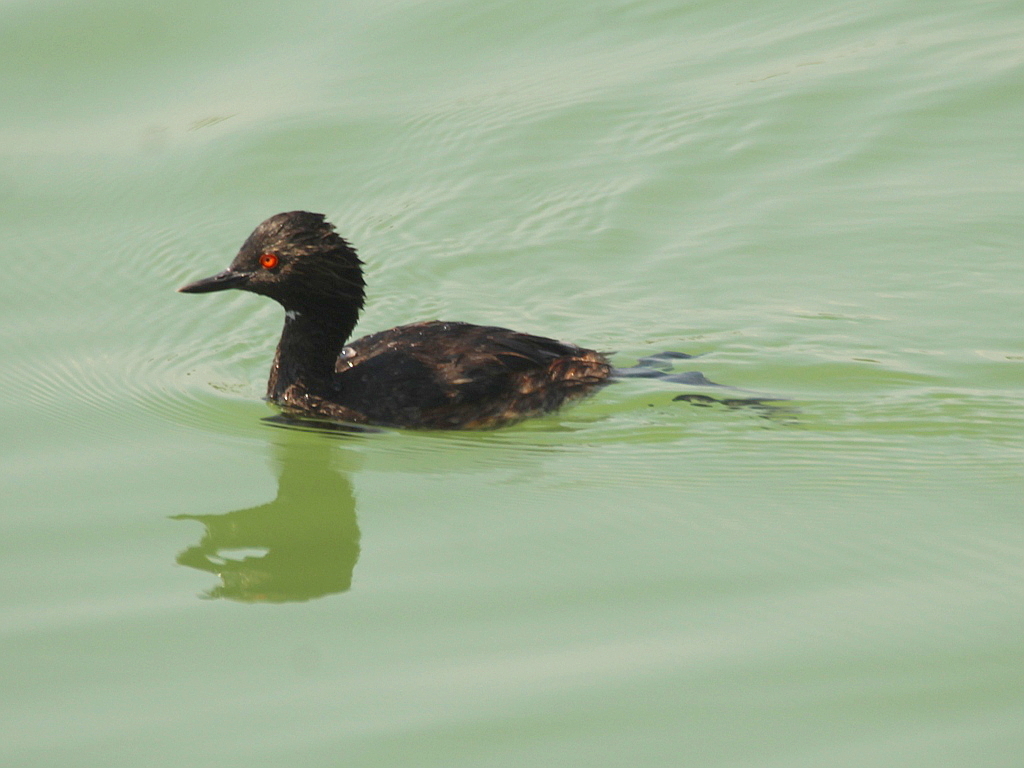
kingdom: Animalia
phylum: Chordata
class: Aves
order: Podicipediformes
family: Podicipedidae
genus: Podiceps
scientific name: Podiceps nigricollis
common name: Black-necked grebe
